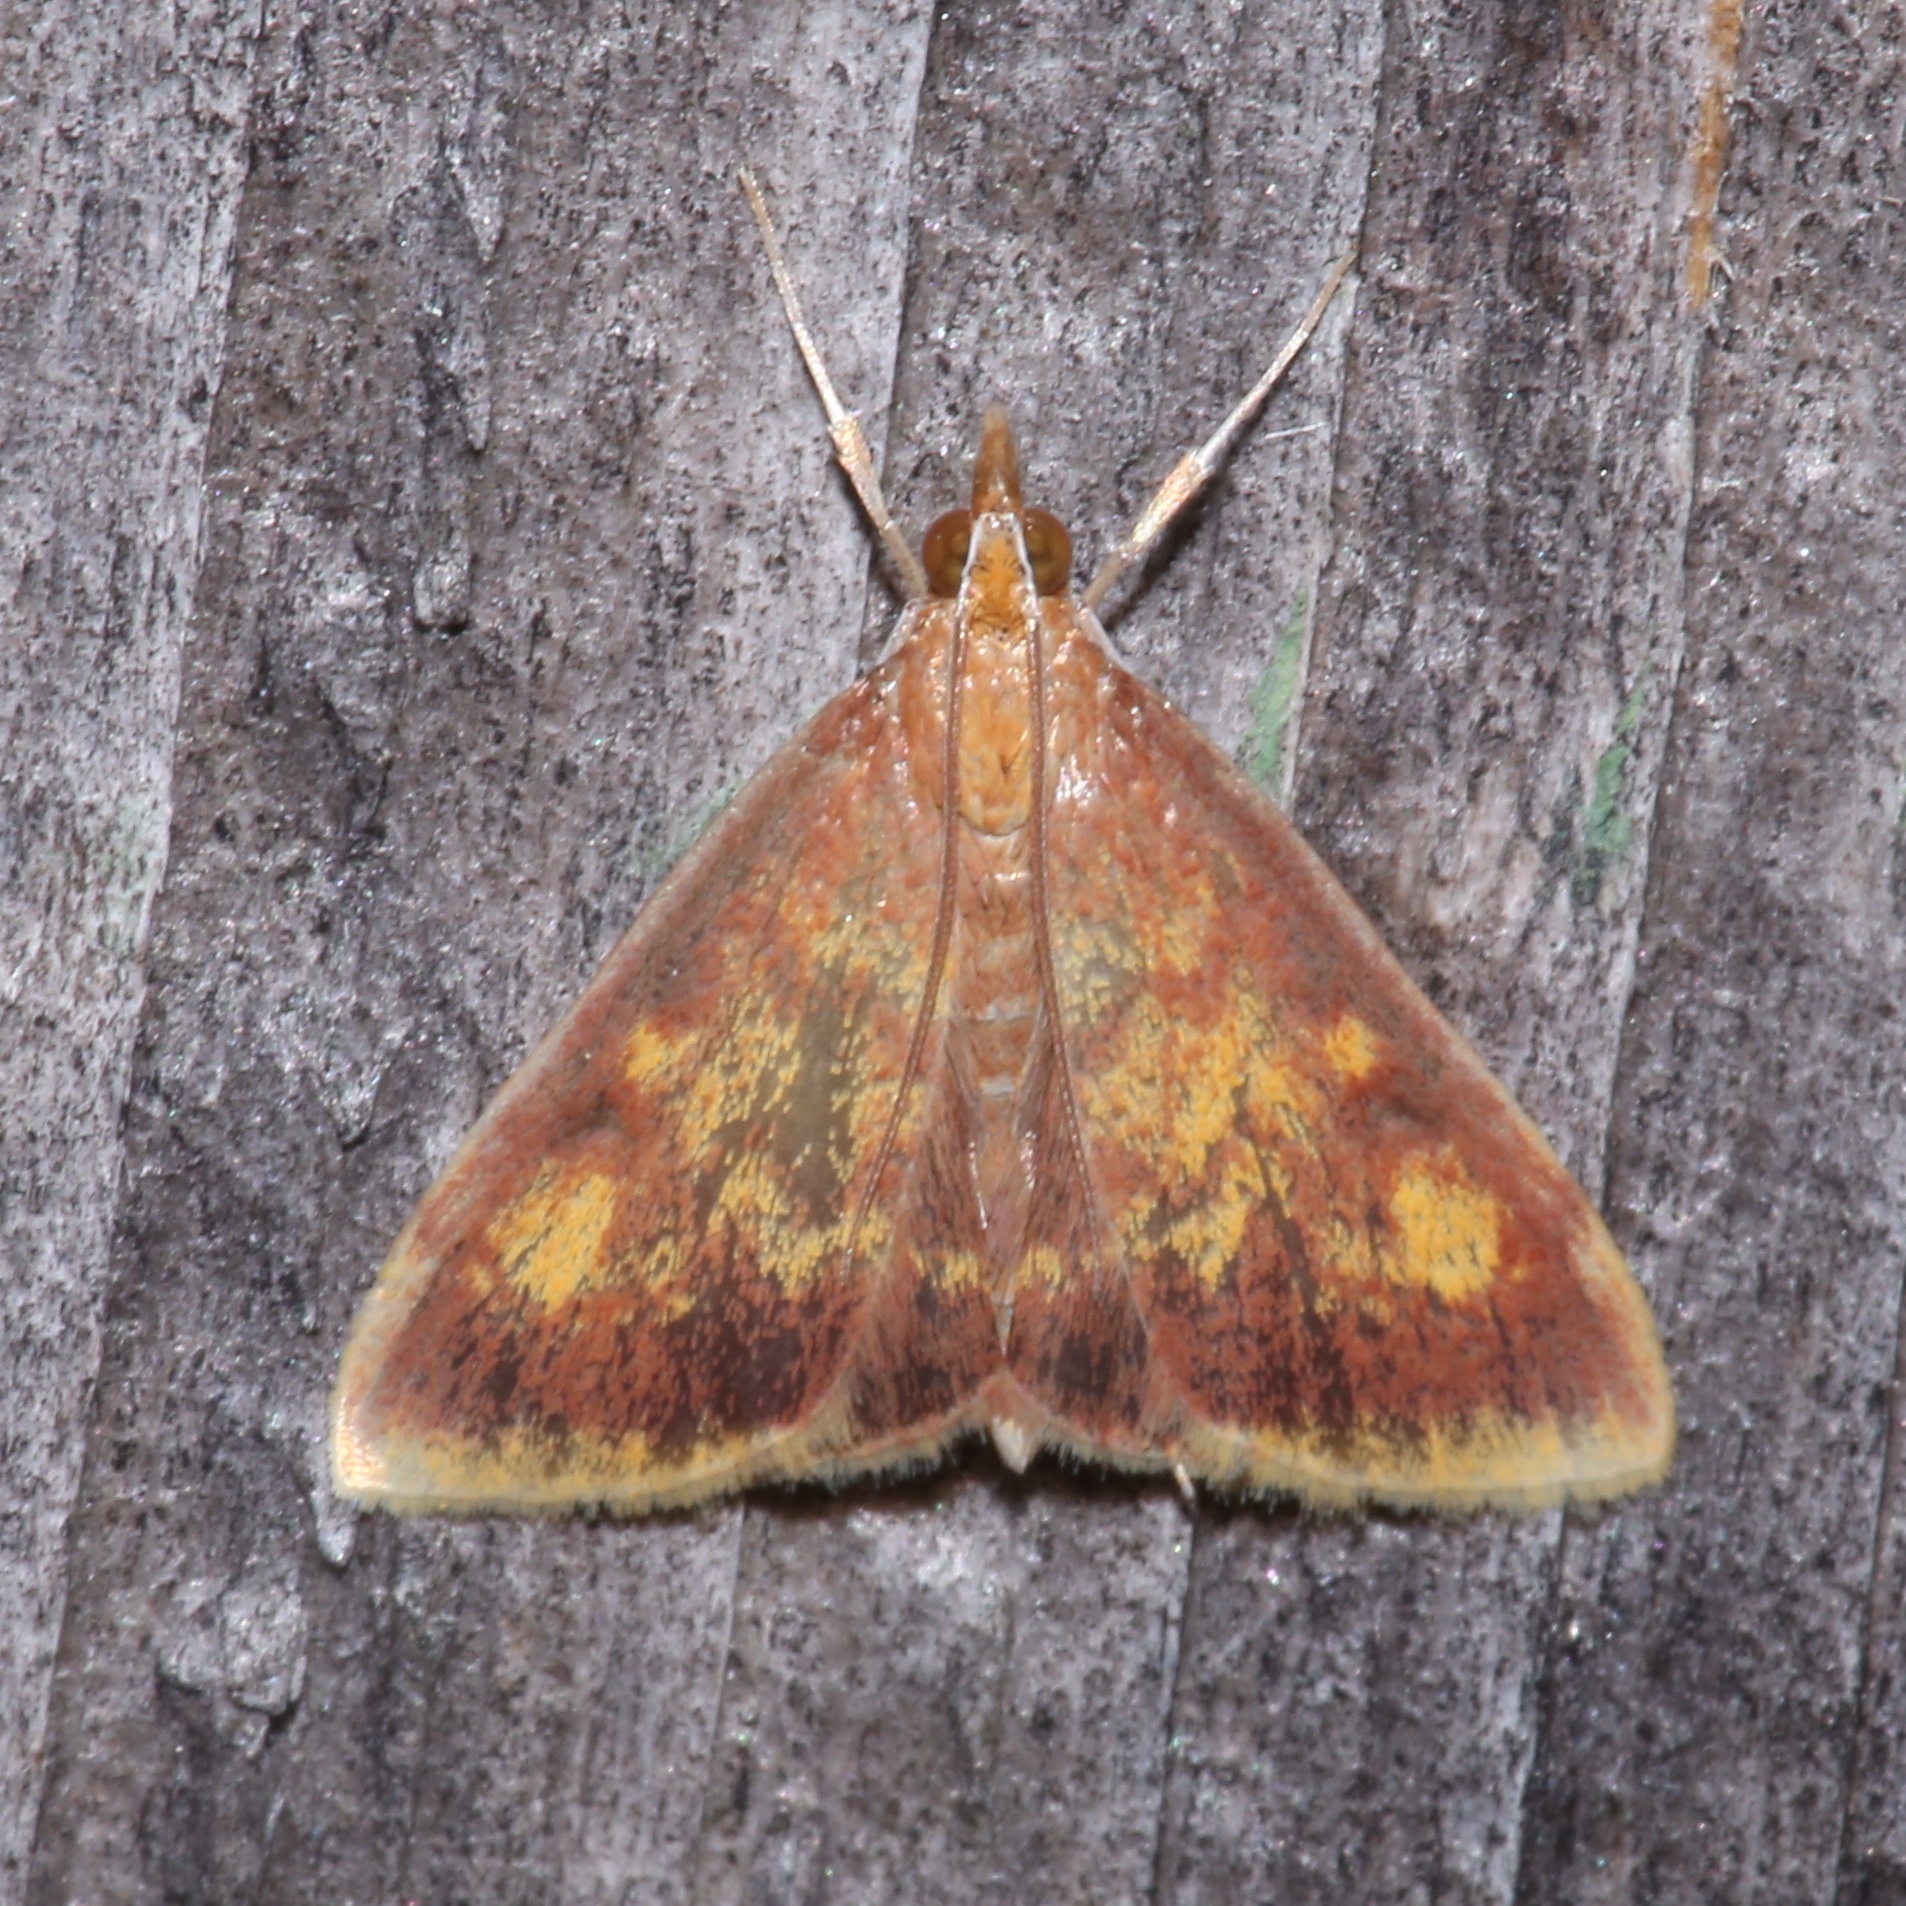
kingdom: Animalia
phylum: Arthropoda
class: Insecta
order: Lepidoptera
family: Crambidae
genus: Pyrausta
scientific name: Pyrausta acrionalis
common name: Mint-loving pyrausta moth
